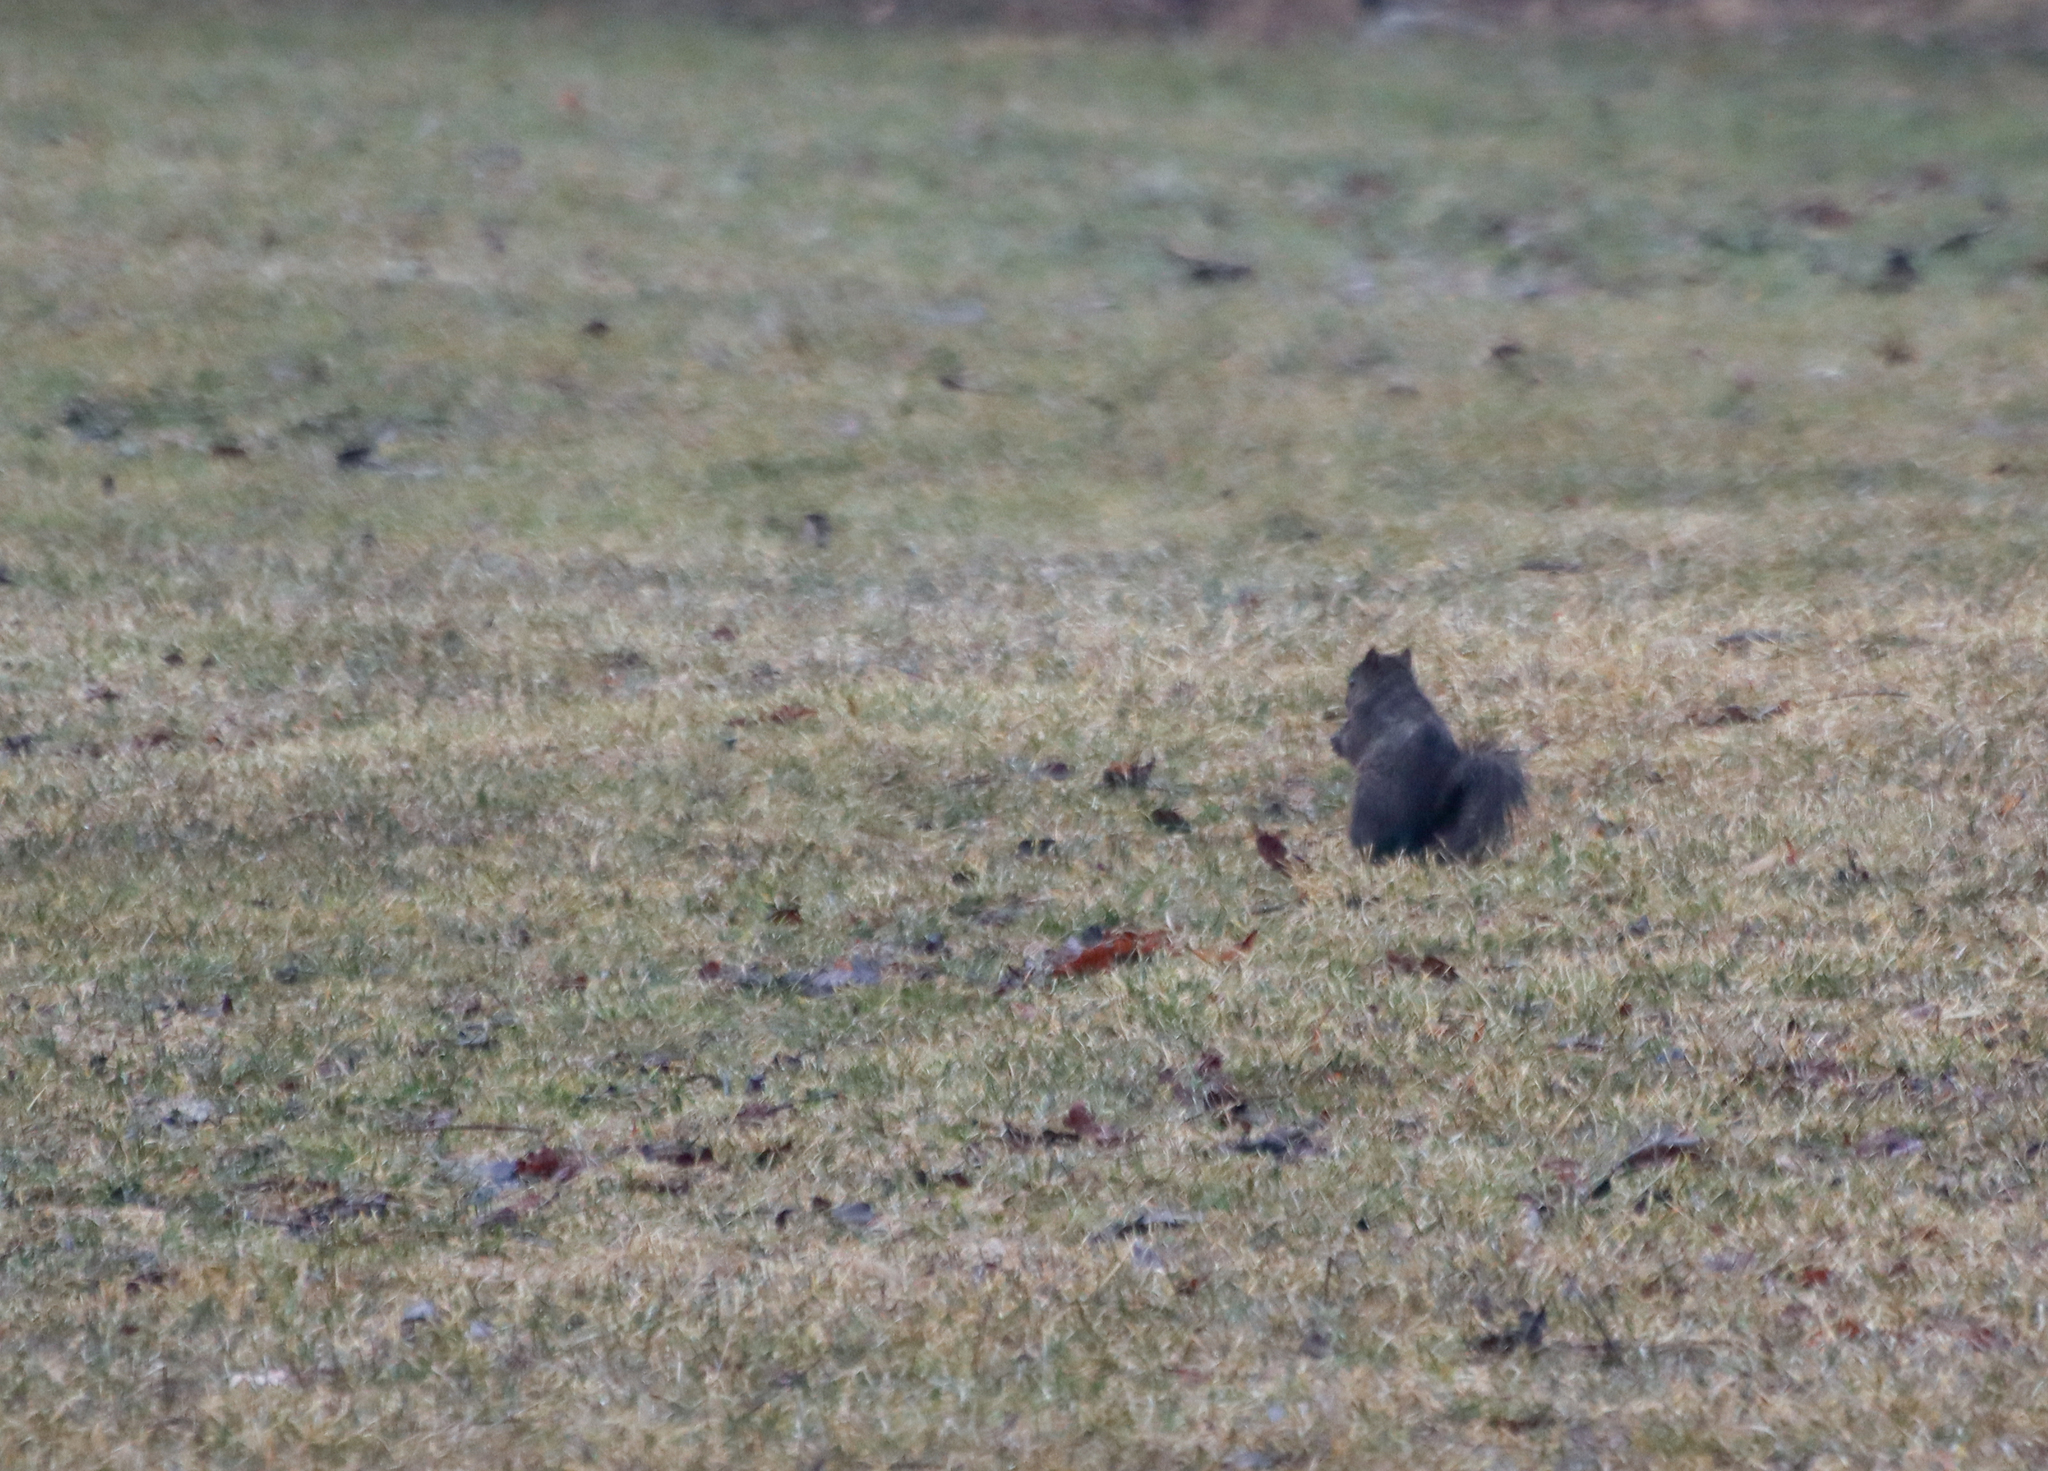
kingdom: Animalia
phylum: Chordata
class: Mammalia
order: Rodentia
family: Sciuridae
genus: Sciurus
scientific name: Sciurus carolinensis
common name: Eastern gray squirrel
